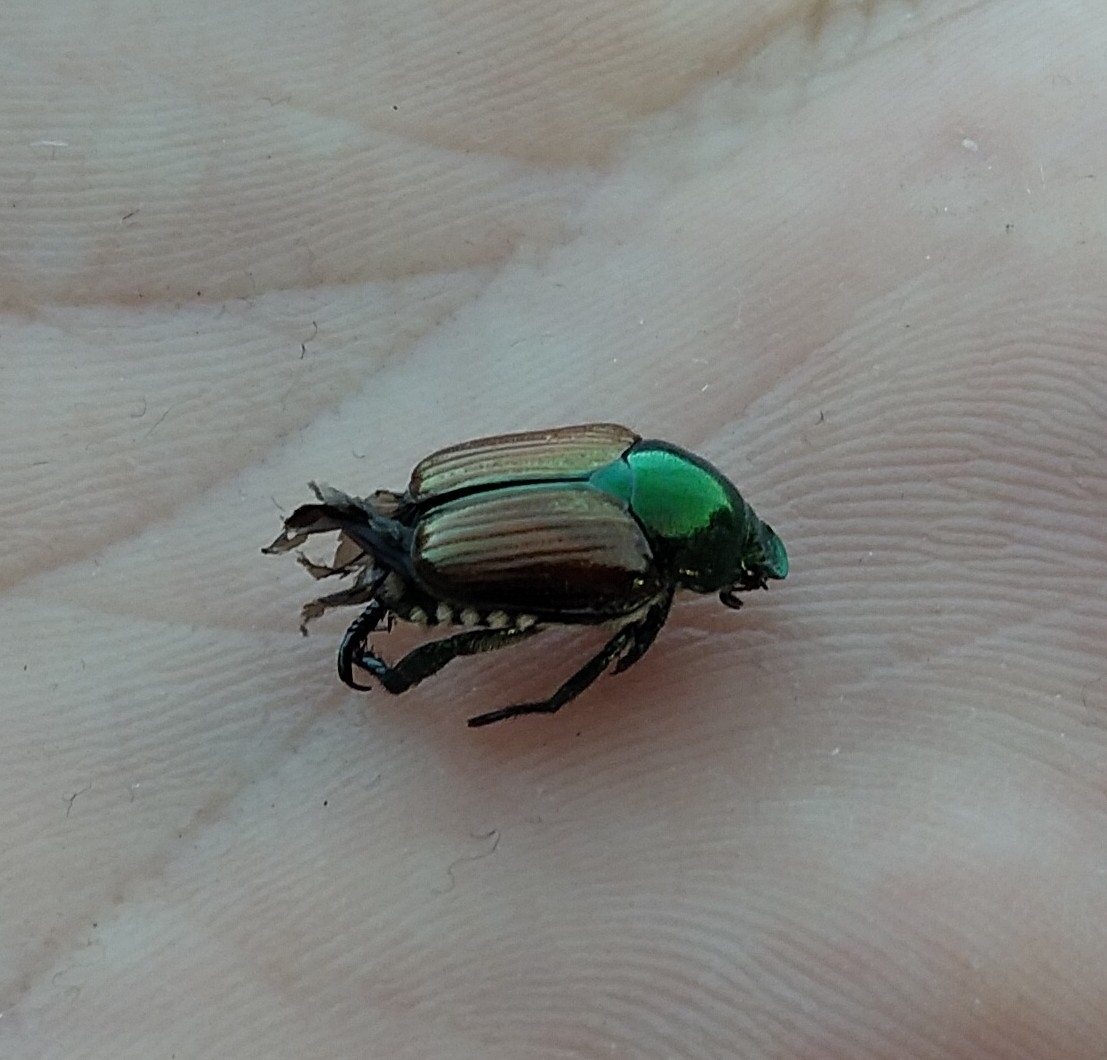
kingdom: Animalia
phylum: Arthropoda
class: Insecta
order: Coleoptera
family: Scarabaeidae
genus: Popillia
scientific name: Popillia japonica
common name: Japanese beetle
